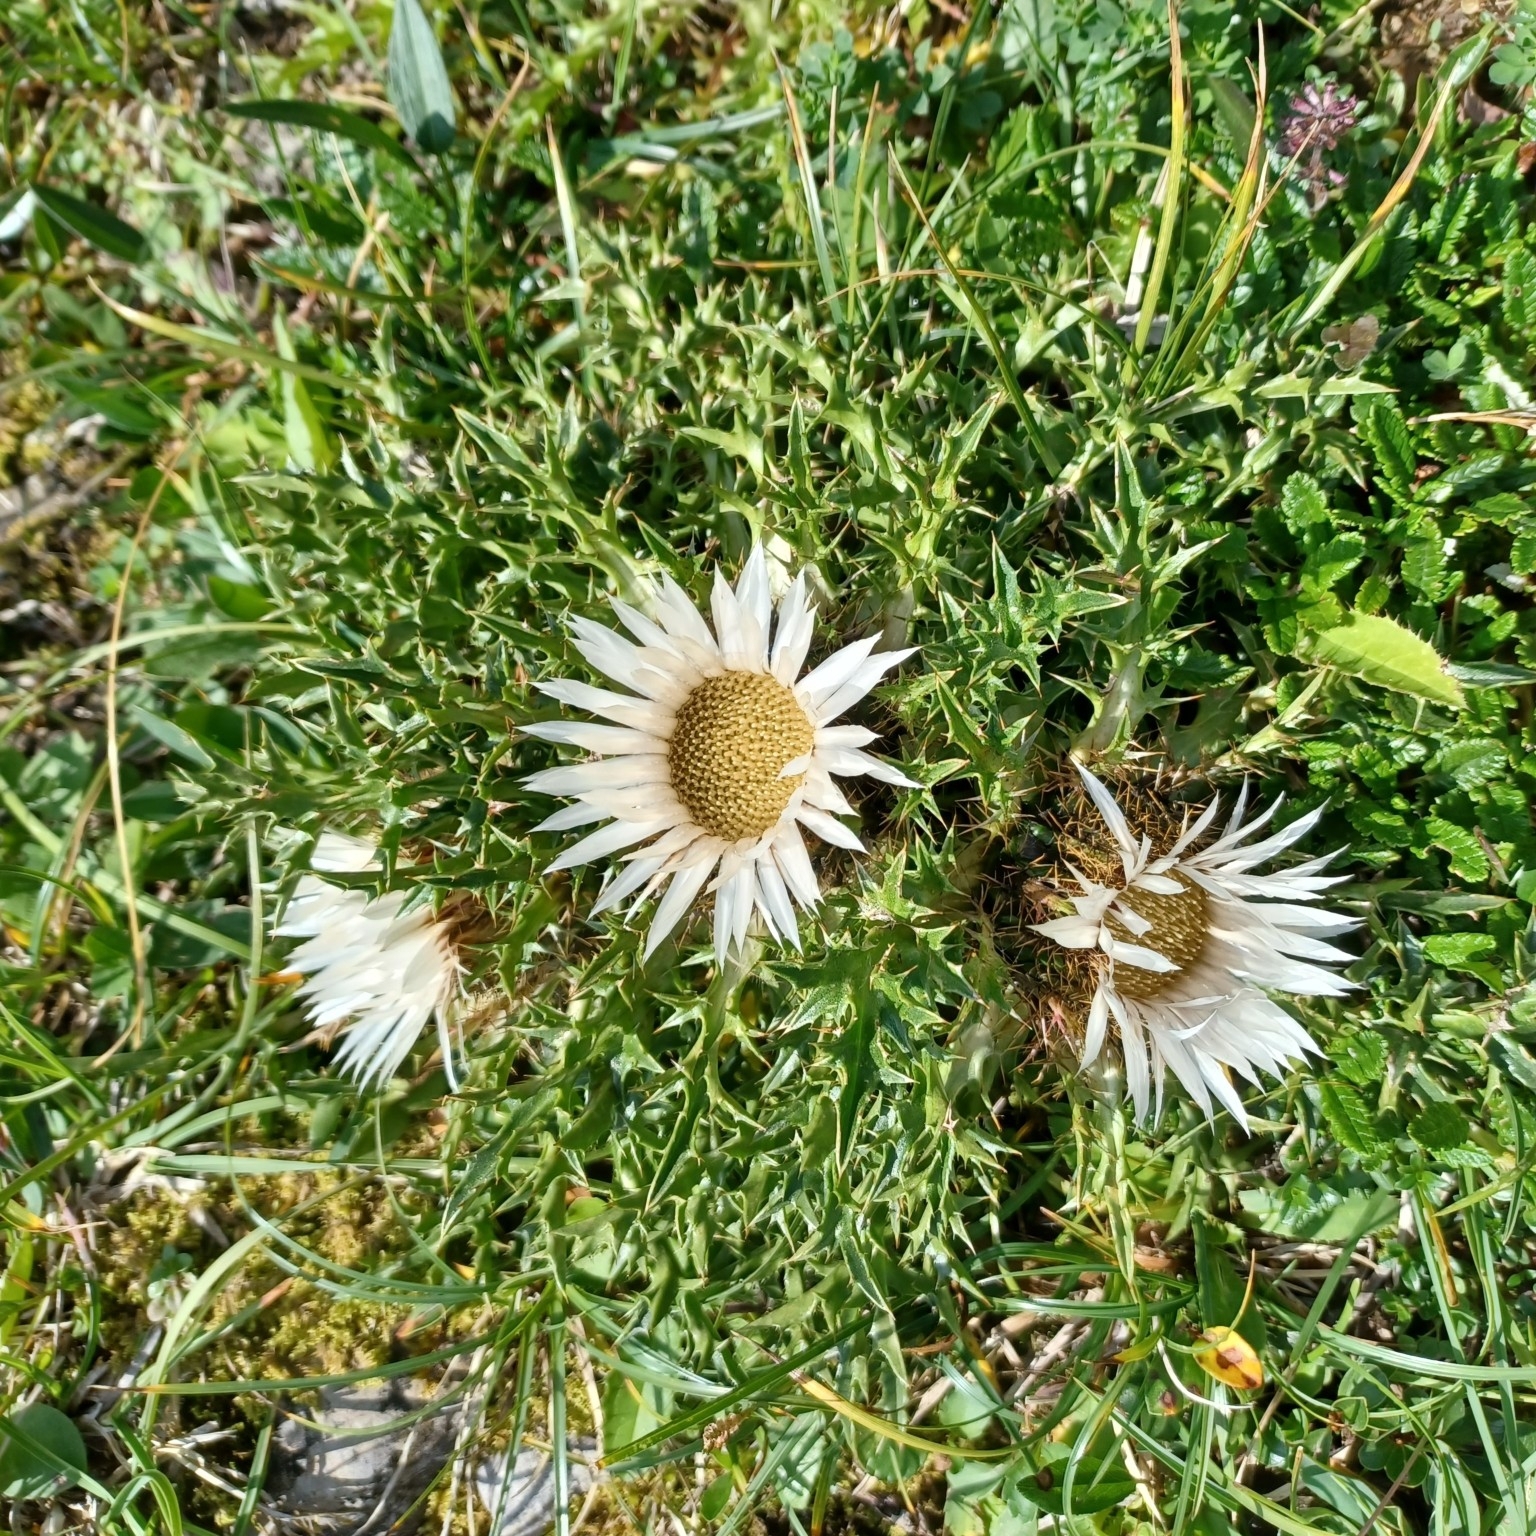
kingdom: Plantae
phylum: Tracheophyta
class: Magnoliopsida
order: Asterales
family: Asteraceae
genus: Carlina
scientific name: Carlina acaulis
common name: Stemless carline thistle
